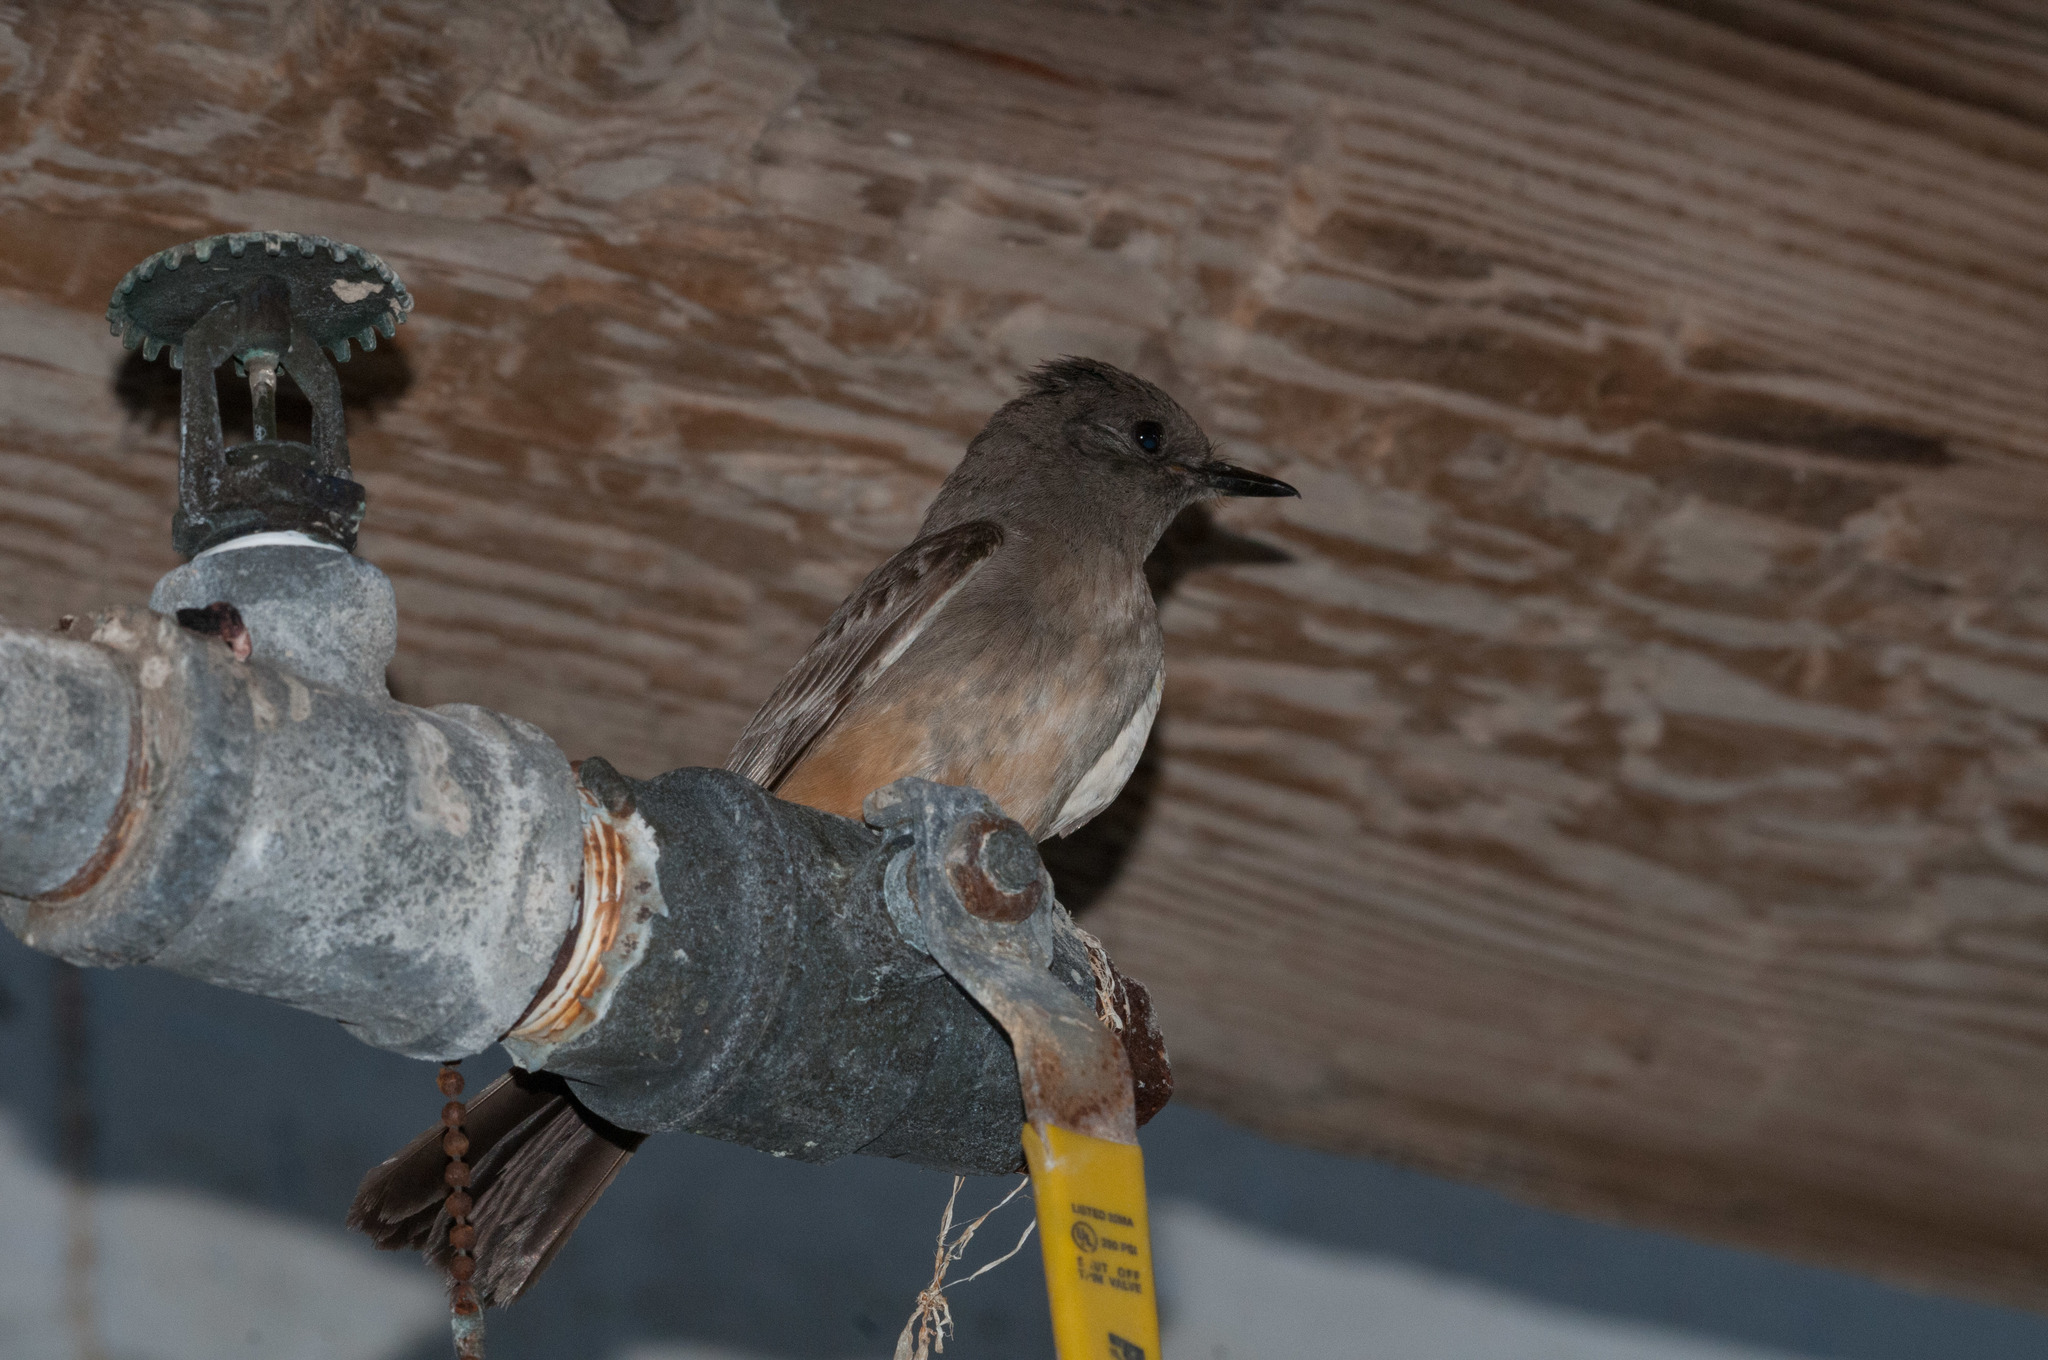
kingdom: Animalia
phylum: Chordata
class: Aves
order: Passeriformes
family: Tyrannidae
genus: Sayornis
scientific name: Sayornis saya
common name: Say's phoebe
